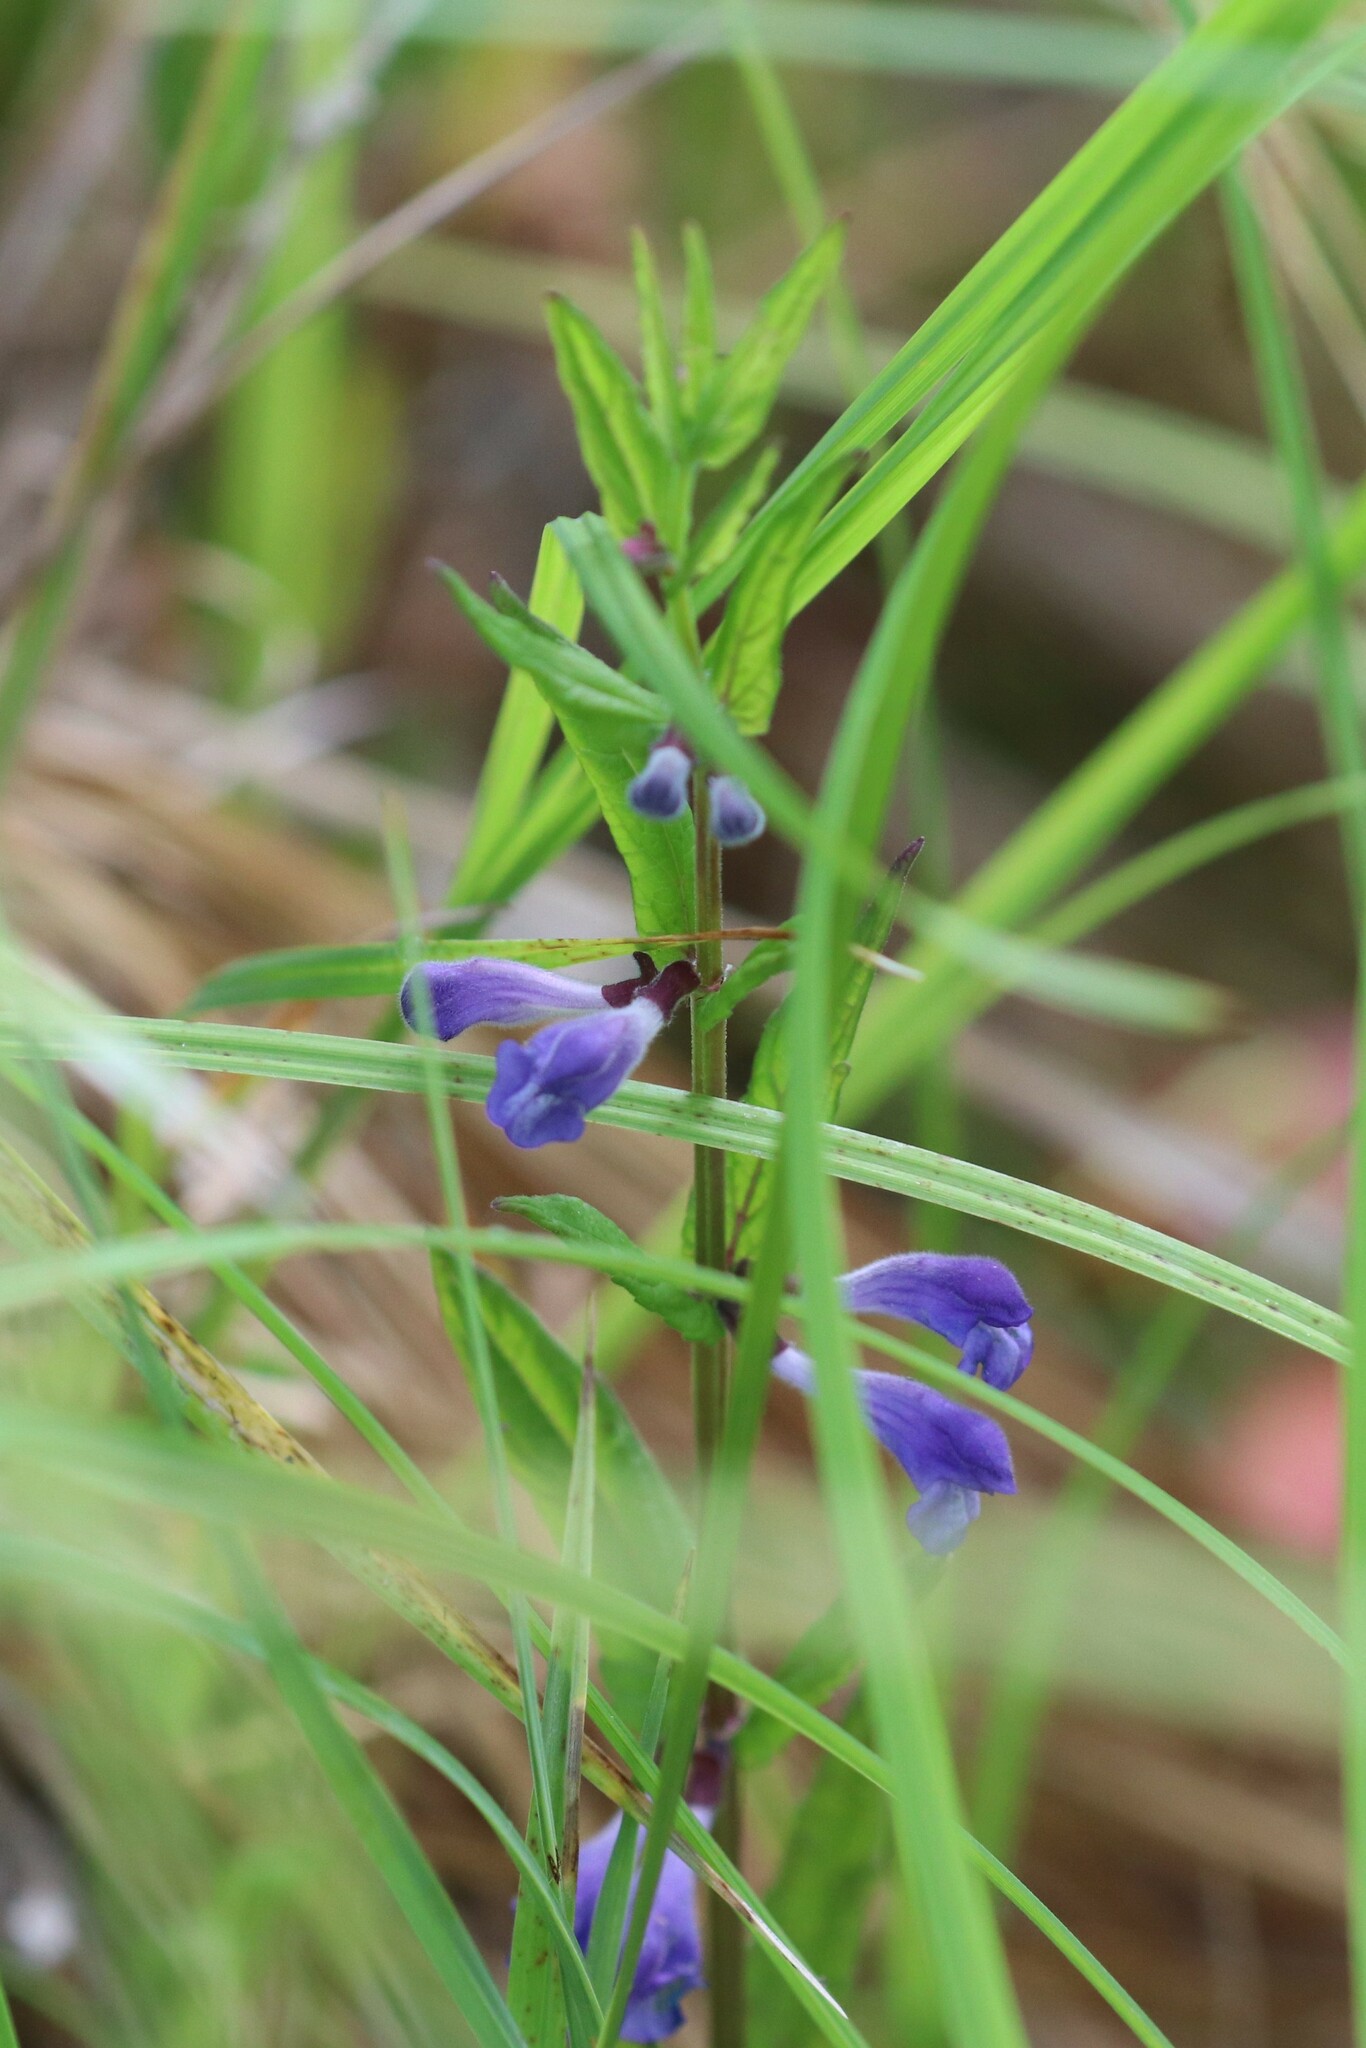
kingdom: Plantae
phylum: Tracheophyta
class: Magnoliopsida
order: Lamiales
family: Lamiaceae
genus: Scutellaria
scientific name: Scutellaria galericulata
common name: Skullcap
